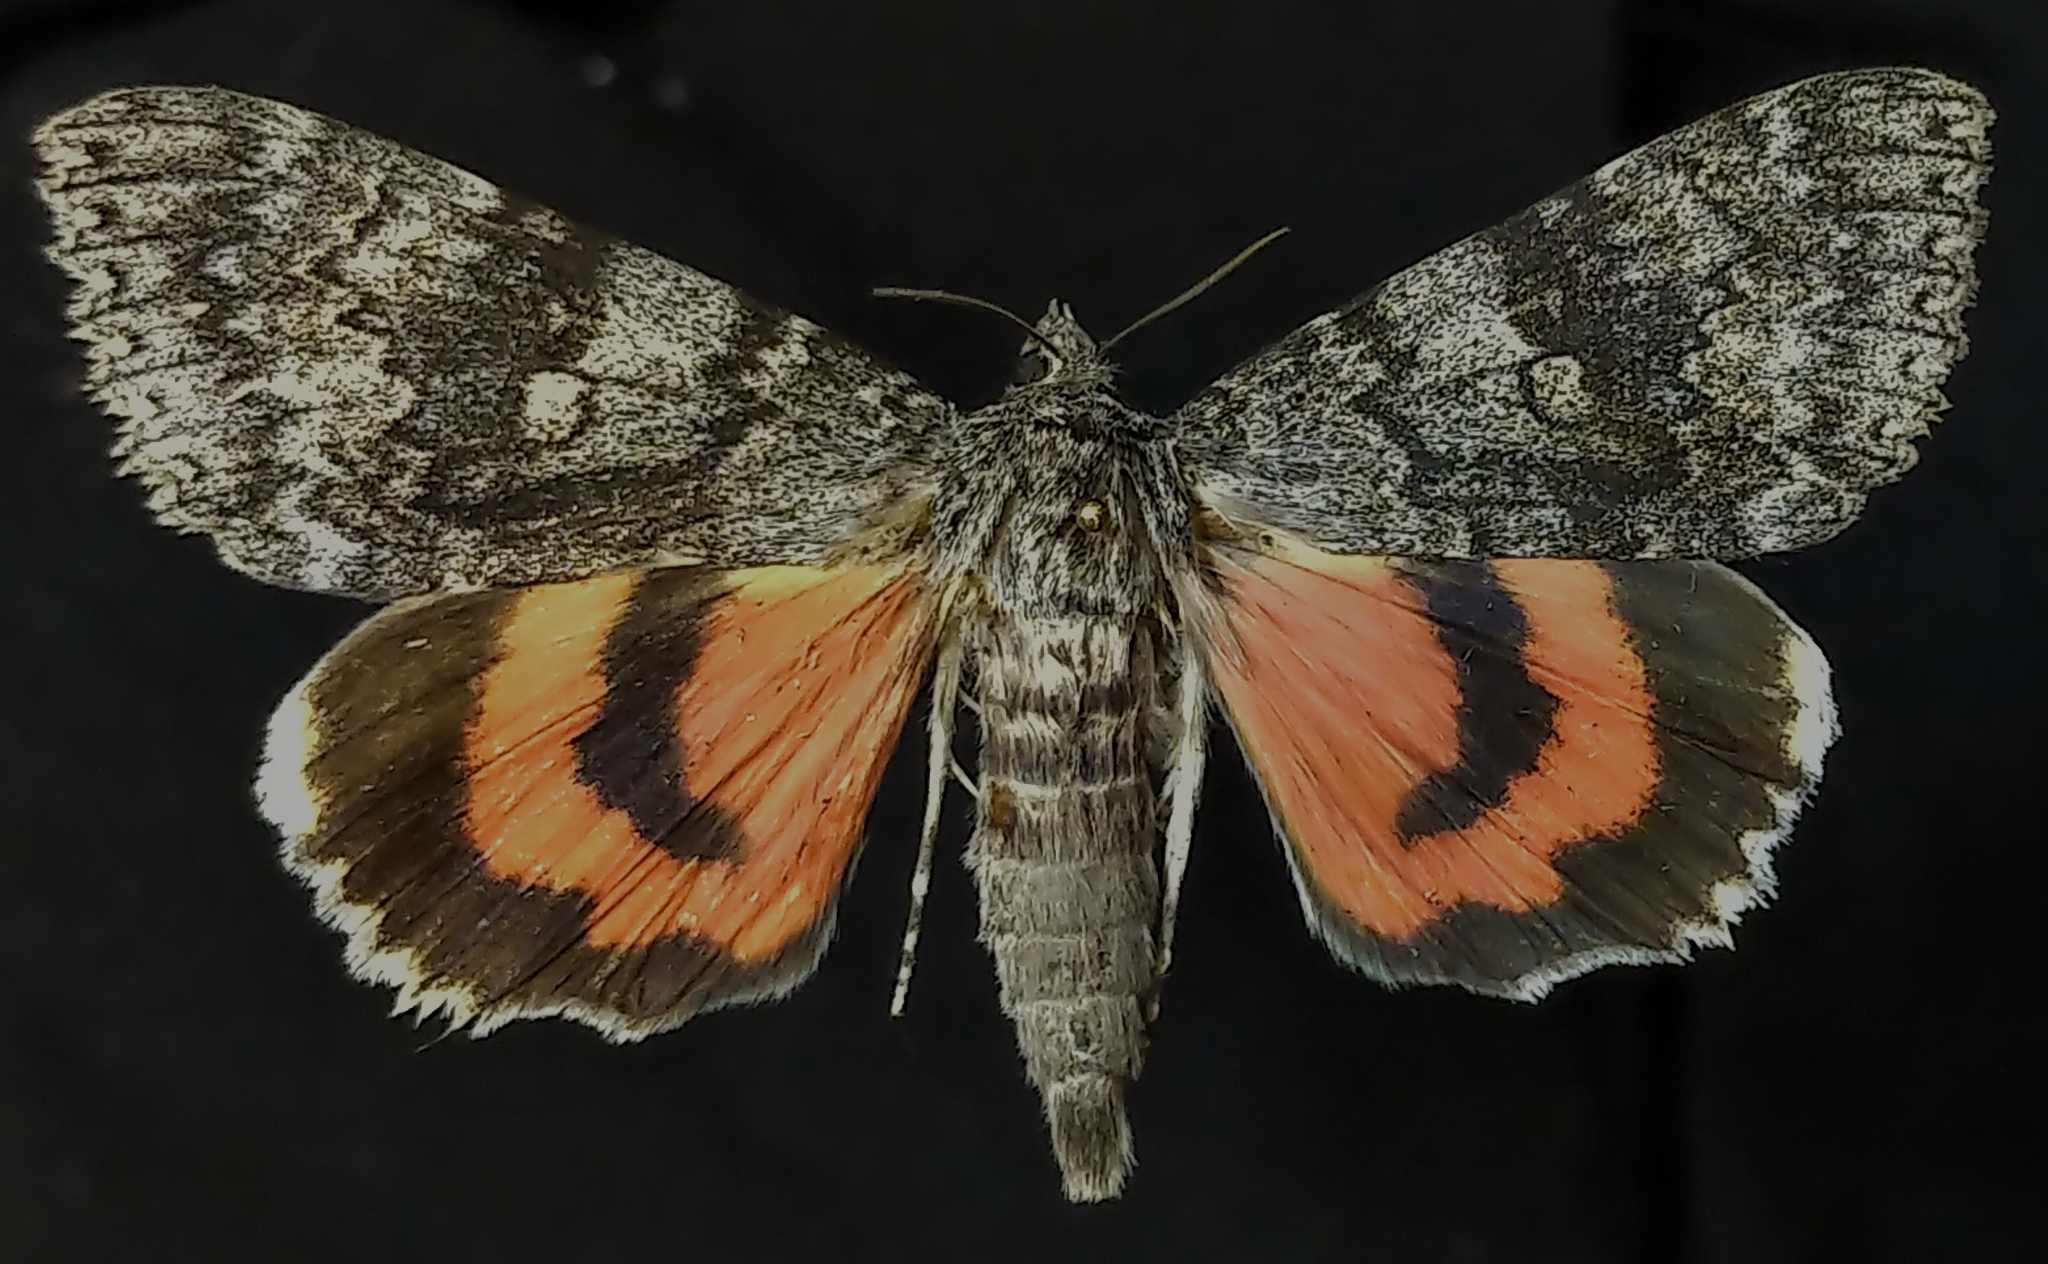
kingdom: Animalia
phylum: Arthropoda
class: Insecta
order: Lepidoptera
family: Erebidae
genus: Catocala
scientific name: Catocala semirelicta
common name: Semirelict underwing moth
